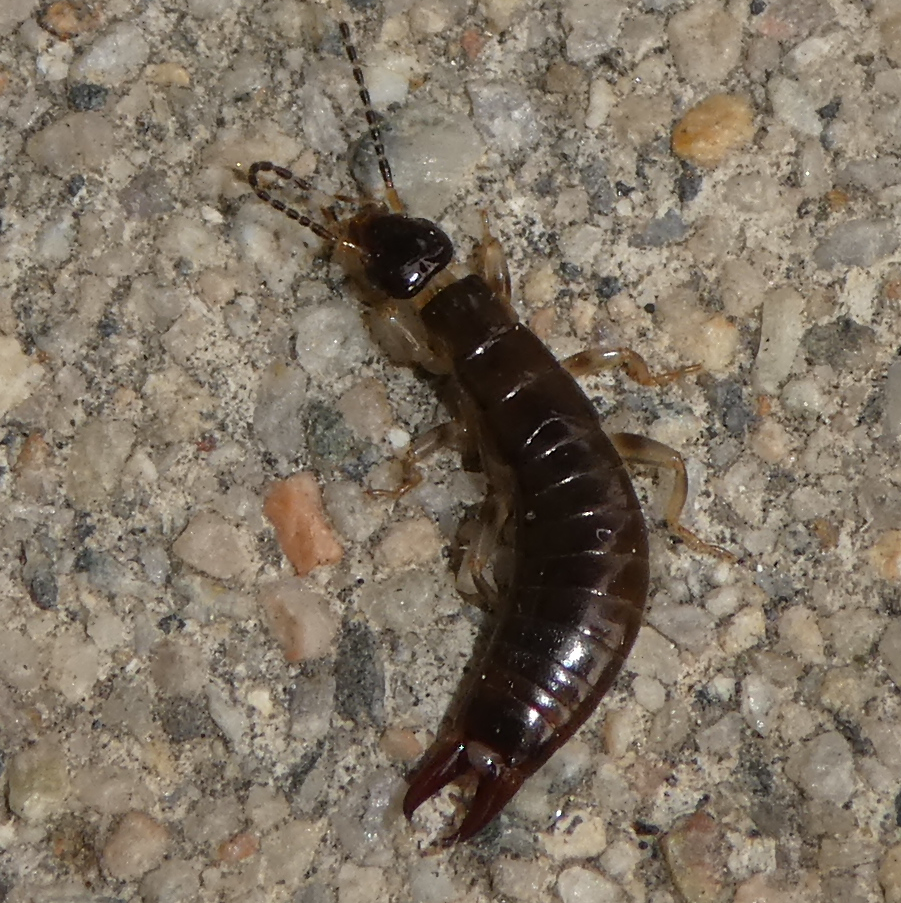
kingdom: Animalia
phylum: Arthropoda
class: Insecta
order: Dermaptera
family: Anisolabididae
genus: Euborellia
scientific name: Euborellia annulipes
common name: Ringlegged earwig
